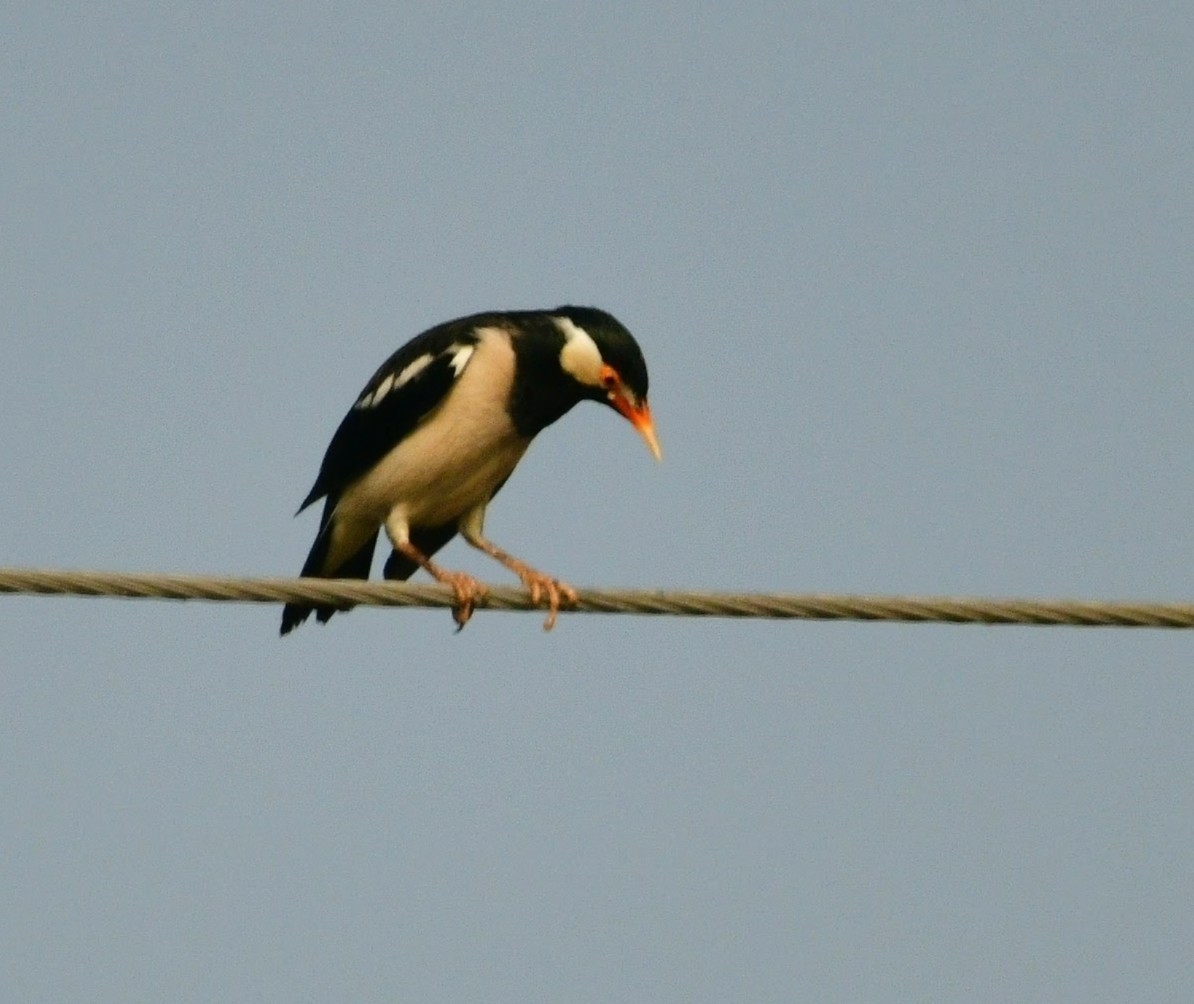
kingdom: Animalia
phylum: Chordata
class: Aves
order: Passeriformes
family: Sturnidae
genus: Gracupica
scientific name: Gracupica contra
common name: Pied myna
